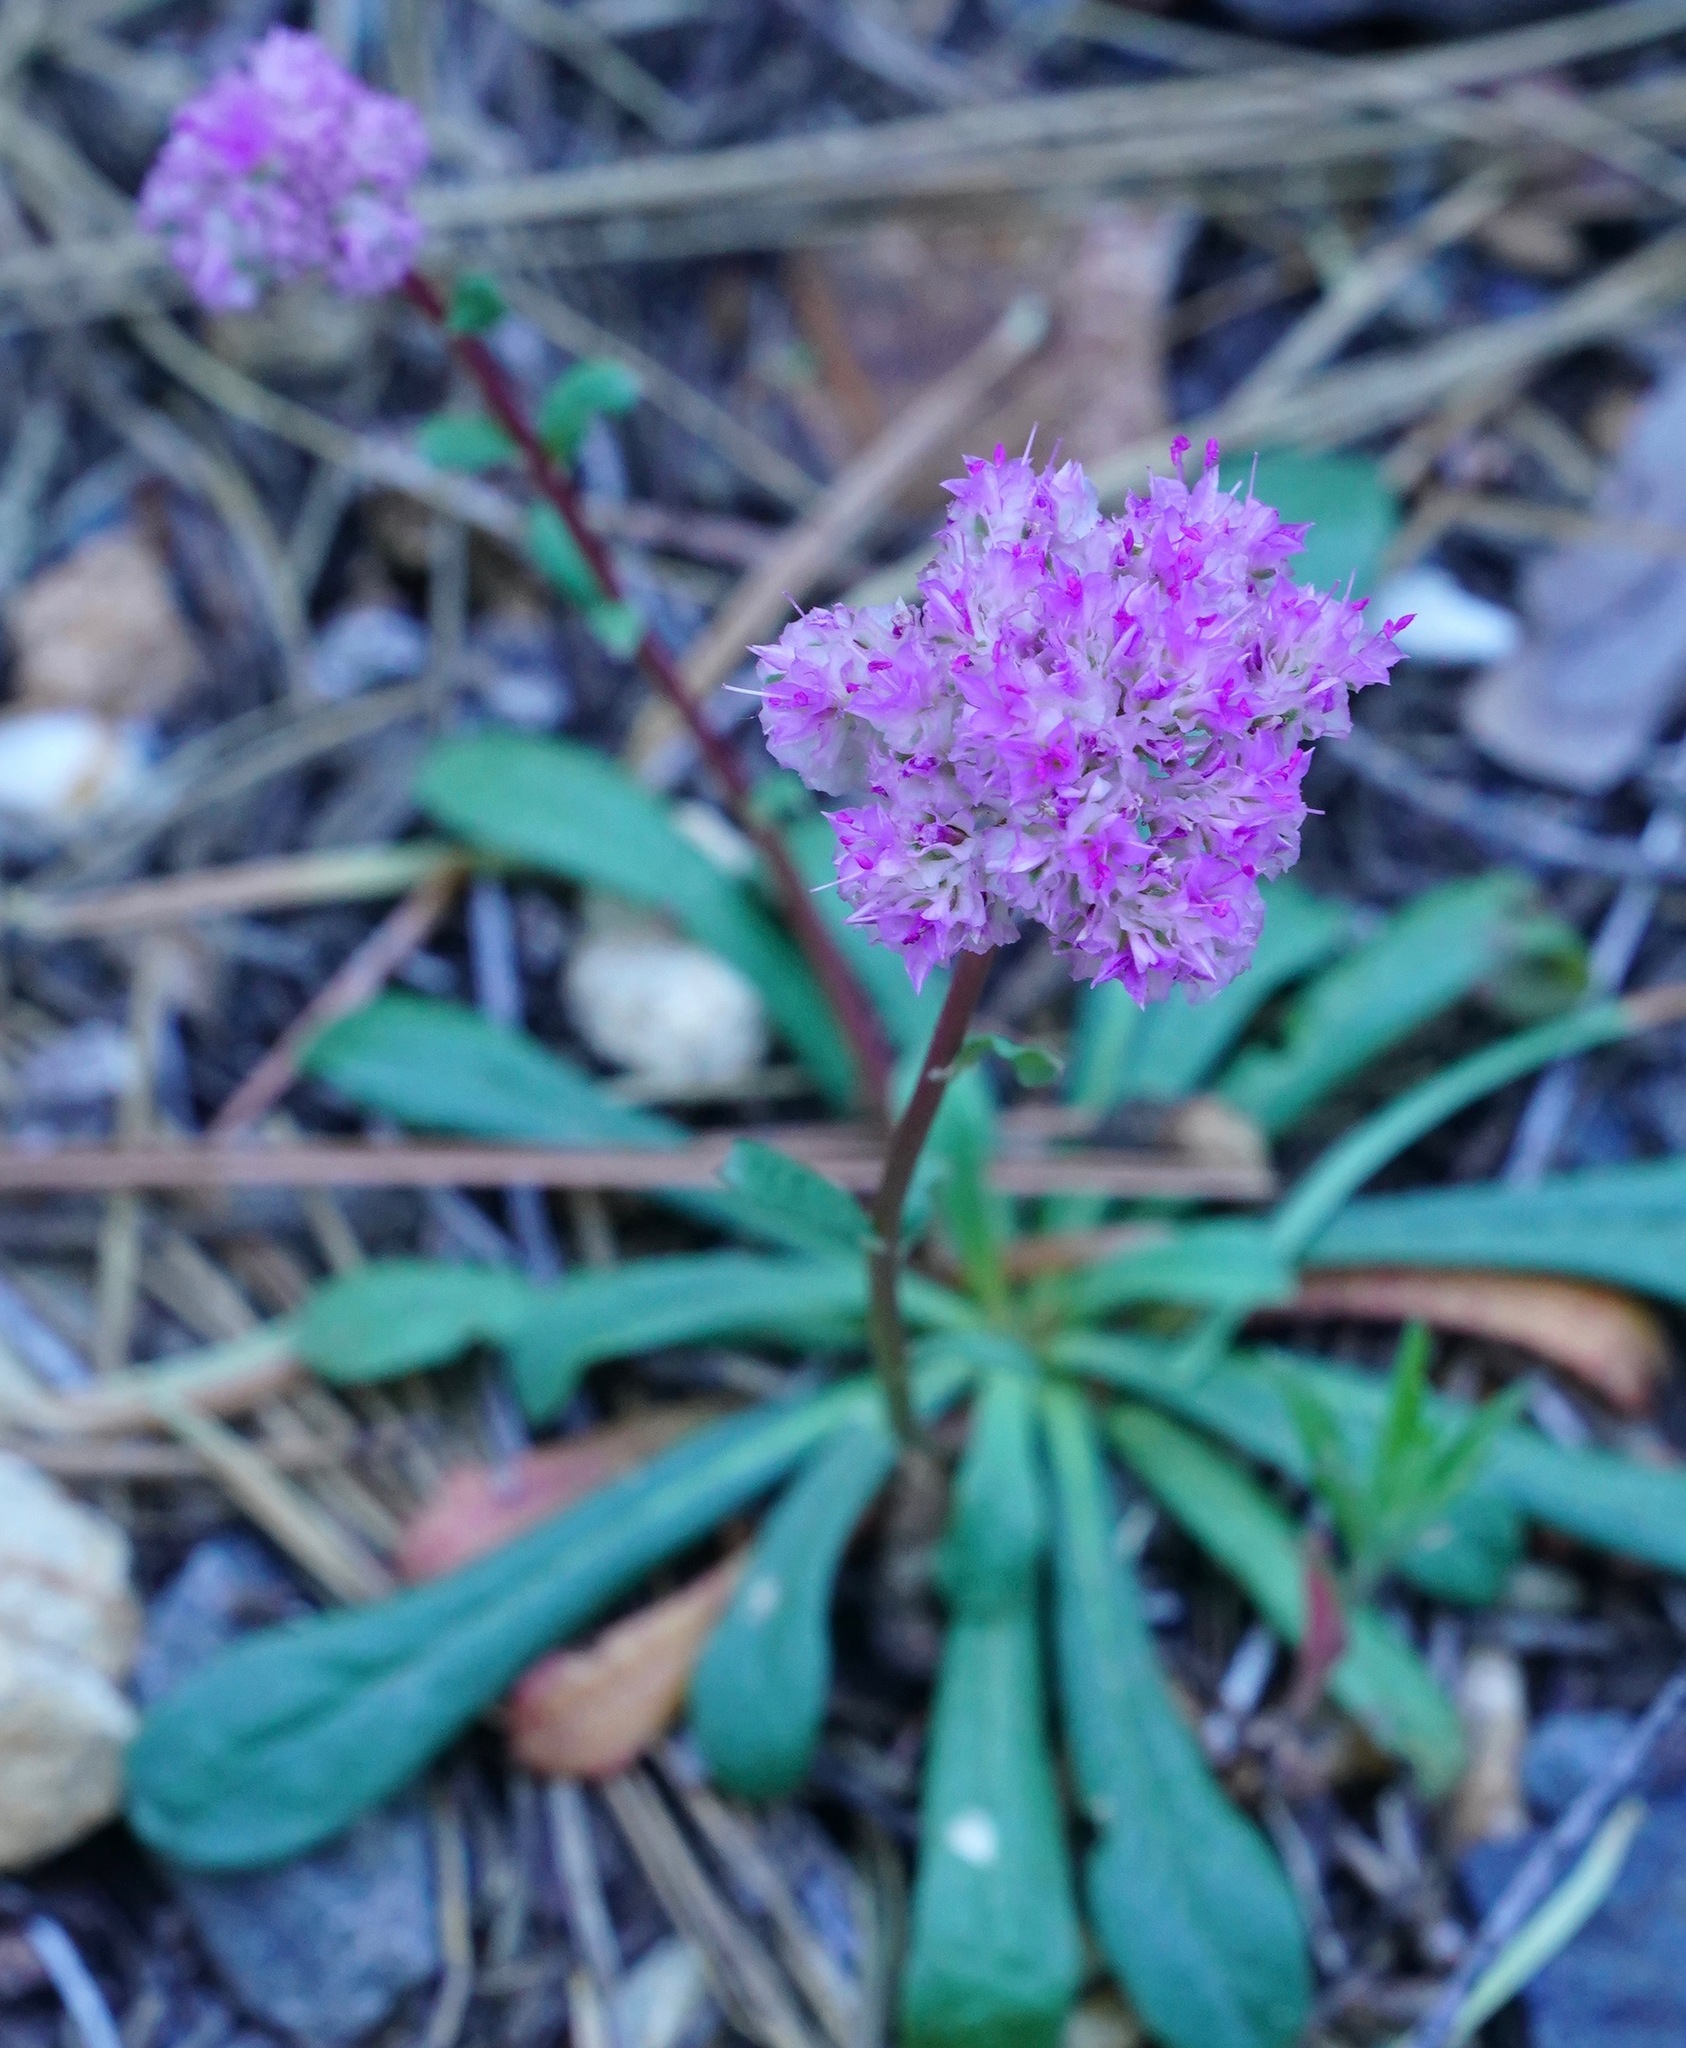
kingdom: Plantae
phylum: Tracheophyta
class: Magnoliopsida
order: Caryophyllales
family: Montiaceae
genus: Calyptridium
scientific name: Calyptridium monospermum
